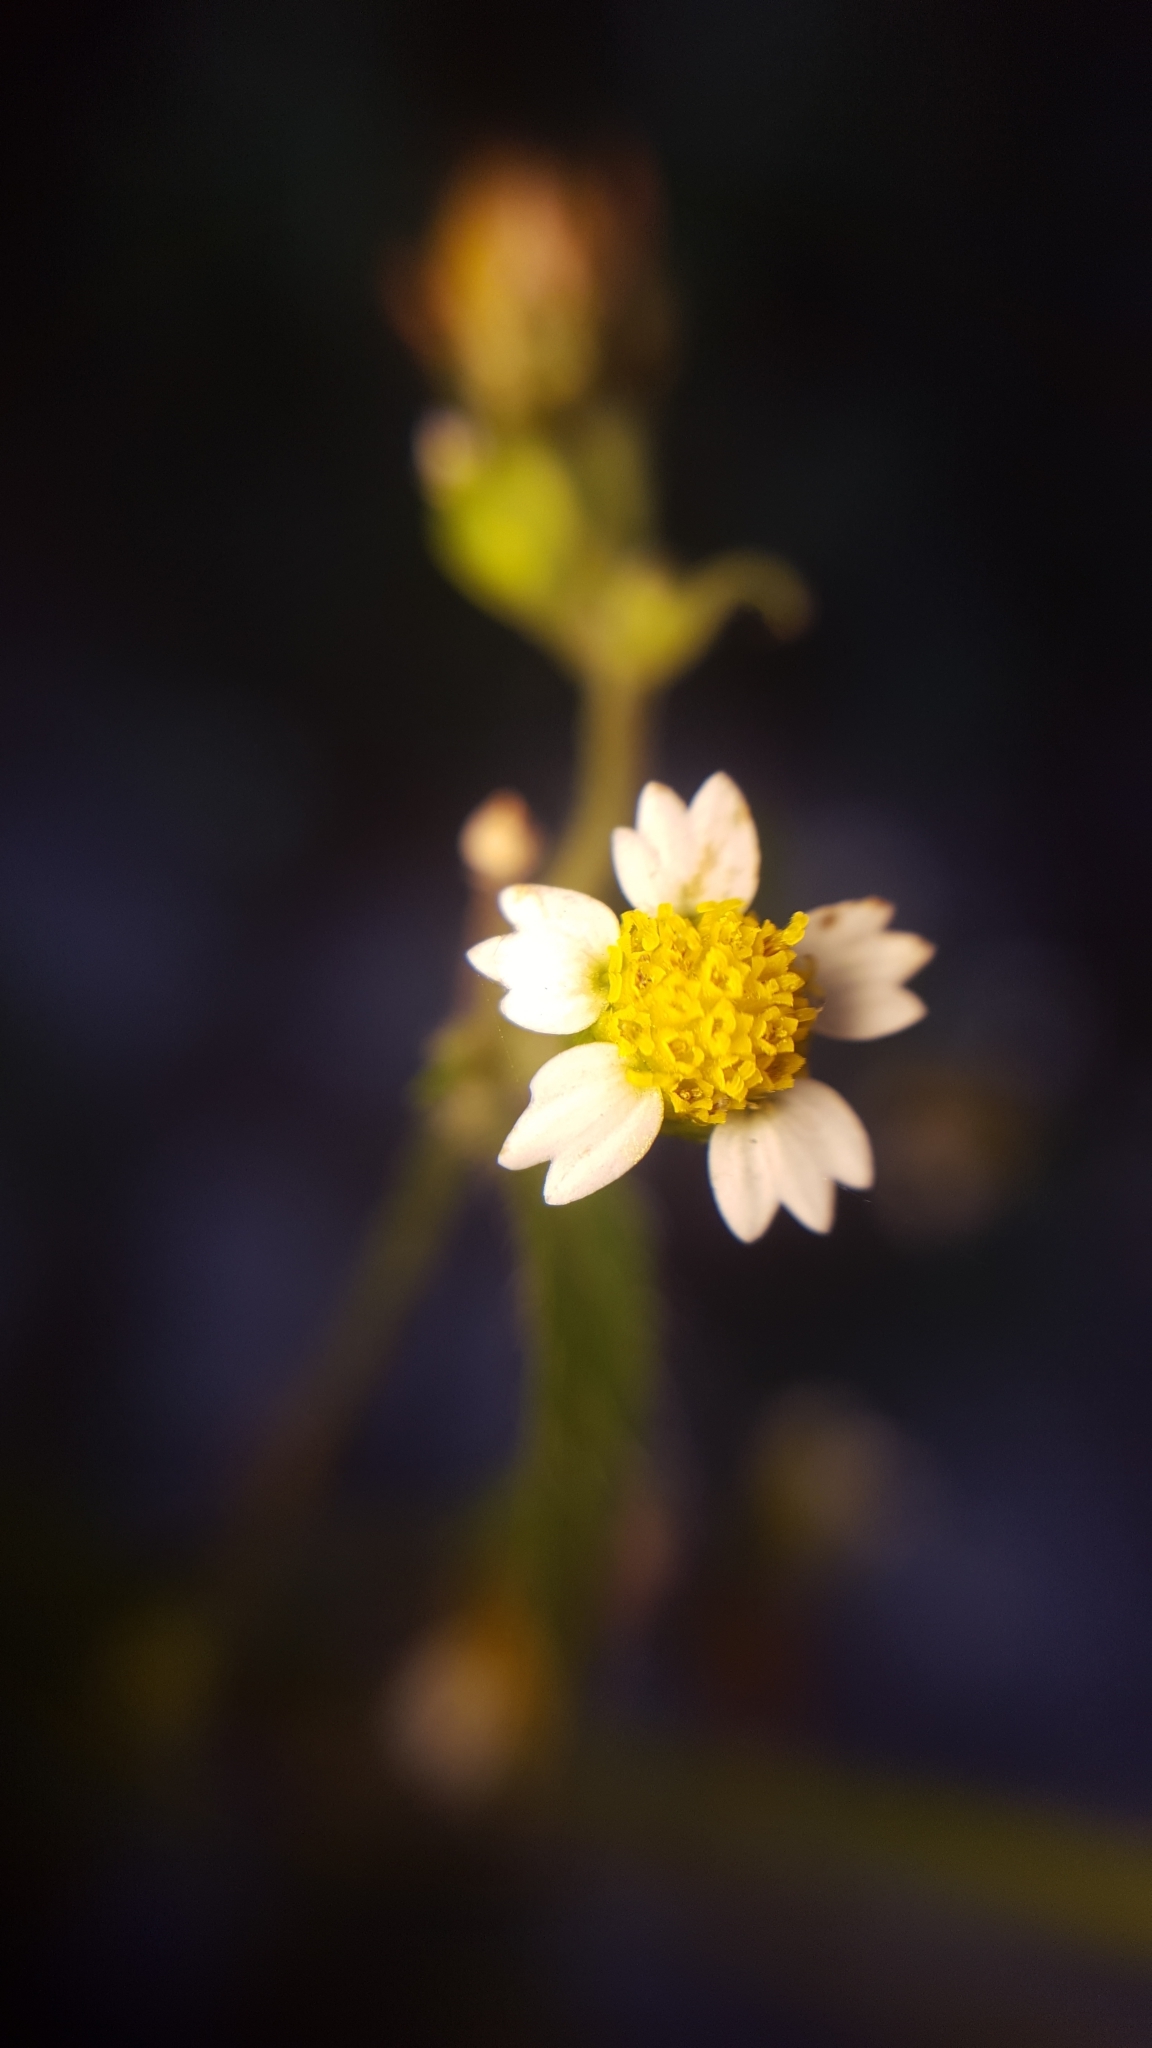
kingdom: Plantae
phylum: Tracheophyta
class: Magnoliopsida
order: Asterales
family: Asteraceae
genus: Galinsoga
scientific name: Galinsoga quadriradiata
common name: Shaggy soldier
